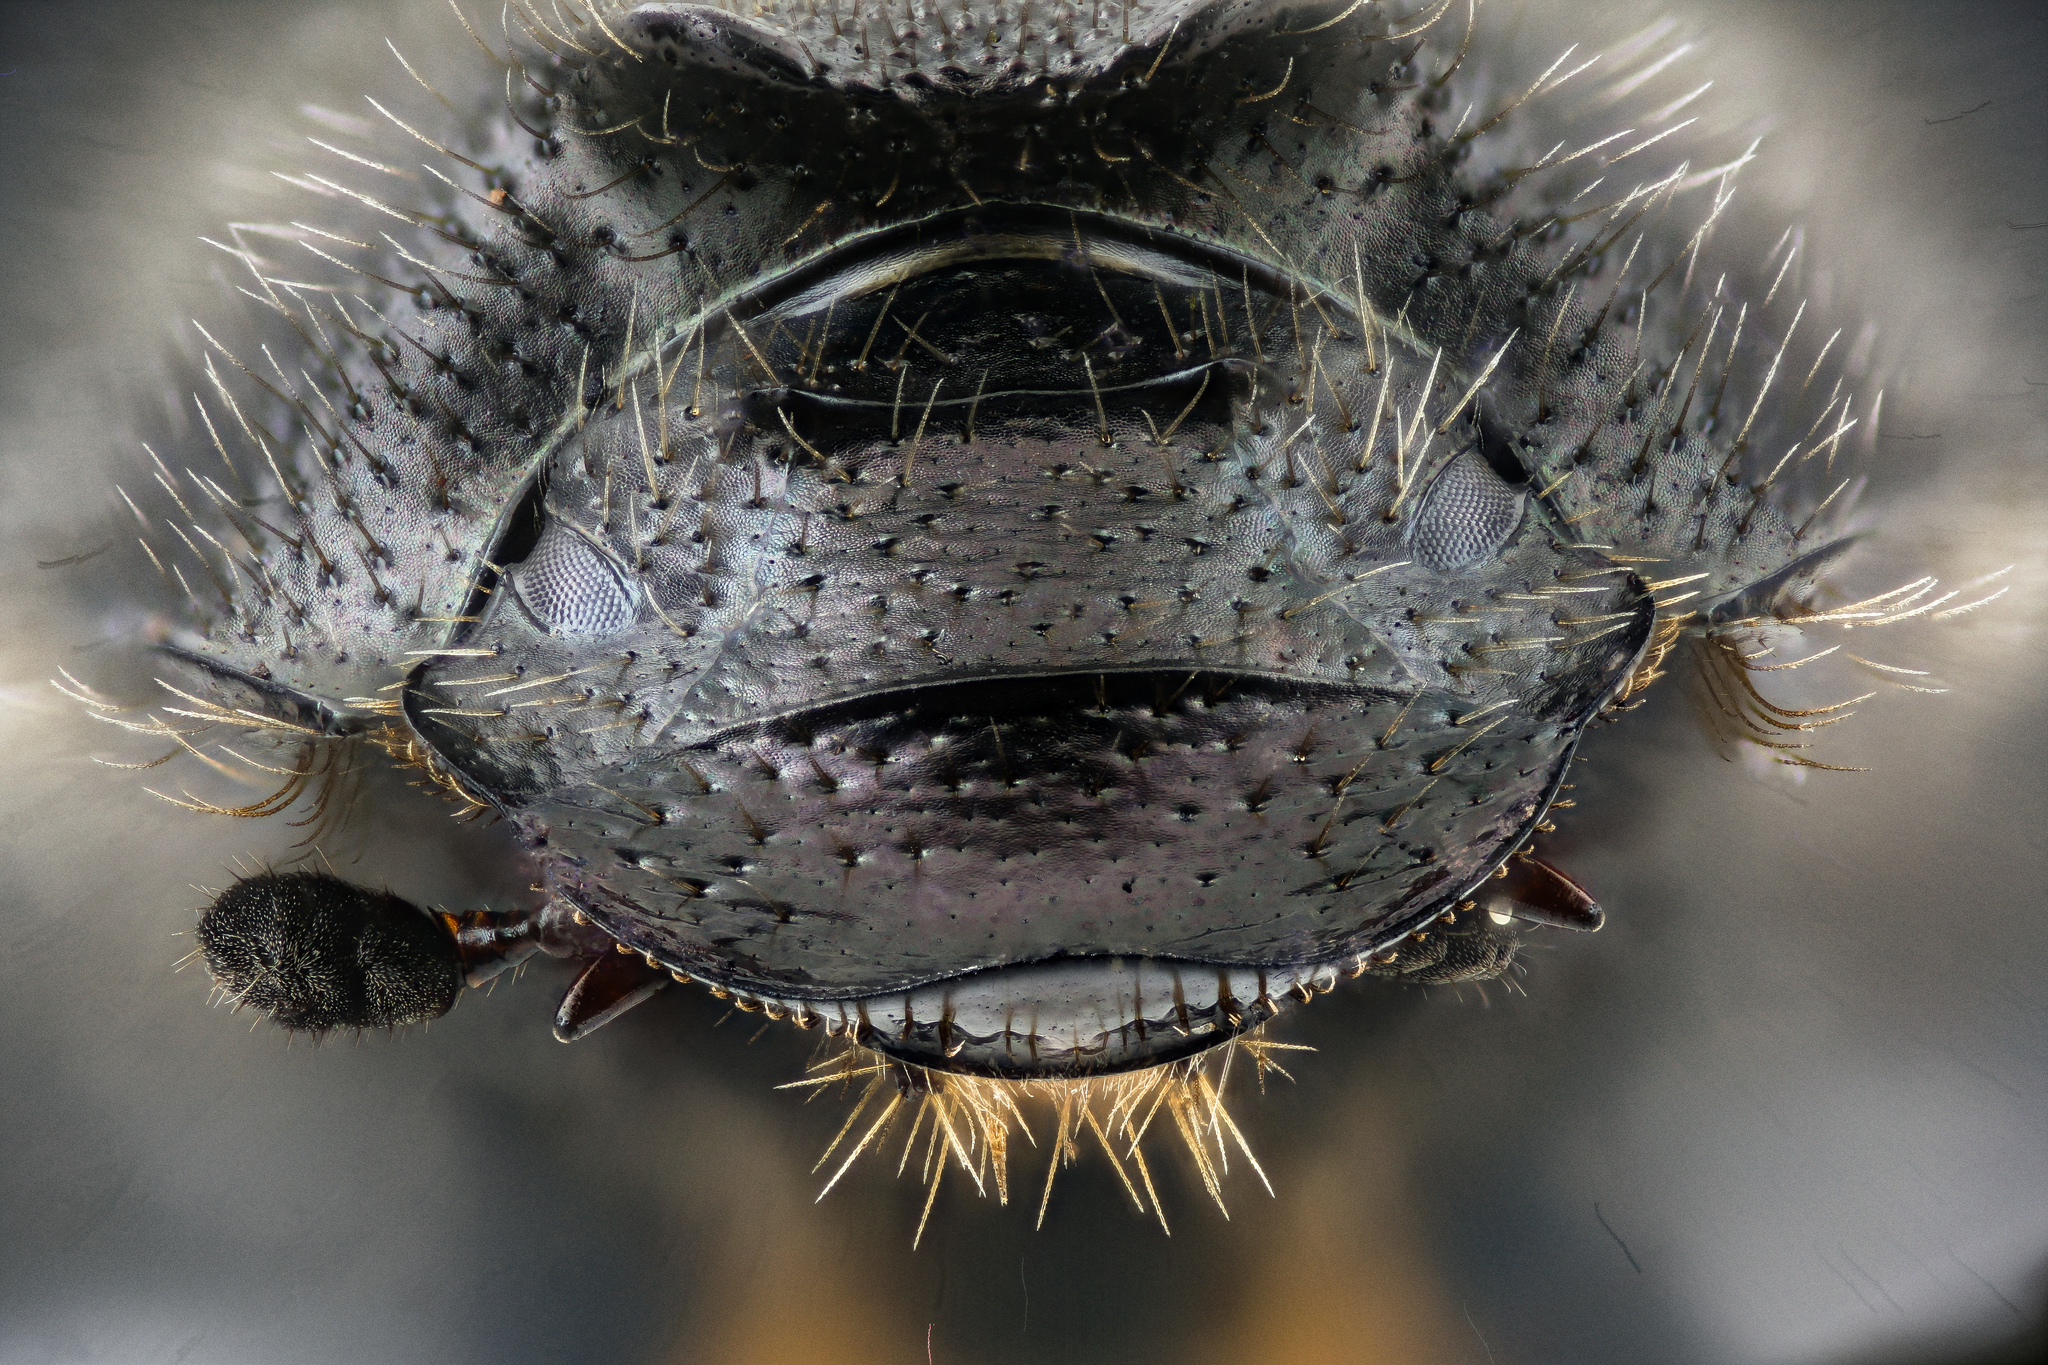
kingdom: Animalia
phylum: Arthropoda
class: Insecta
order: Coleoptera
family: Scarabaeidae
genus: Onthophagus
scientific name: Onthophagus hecate
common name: Scooped scarab
